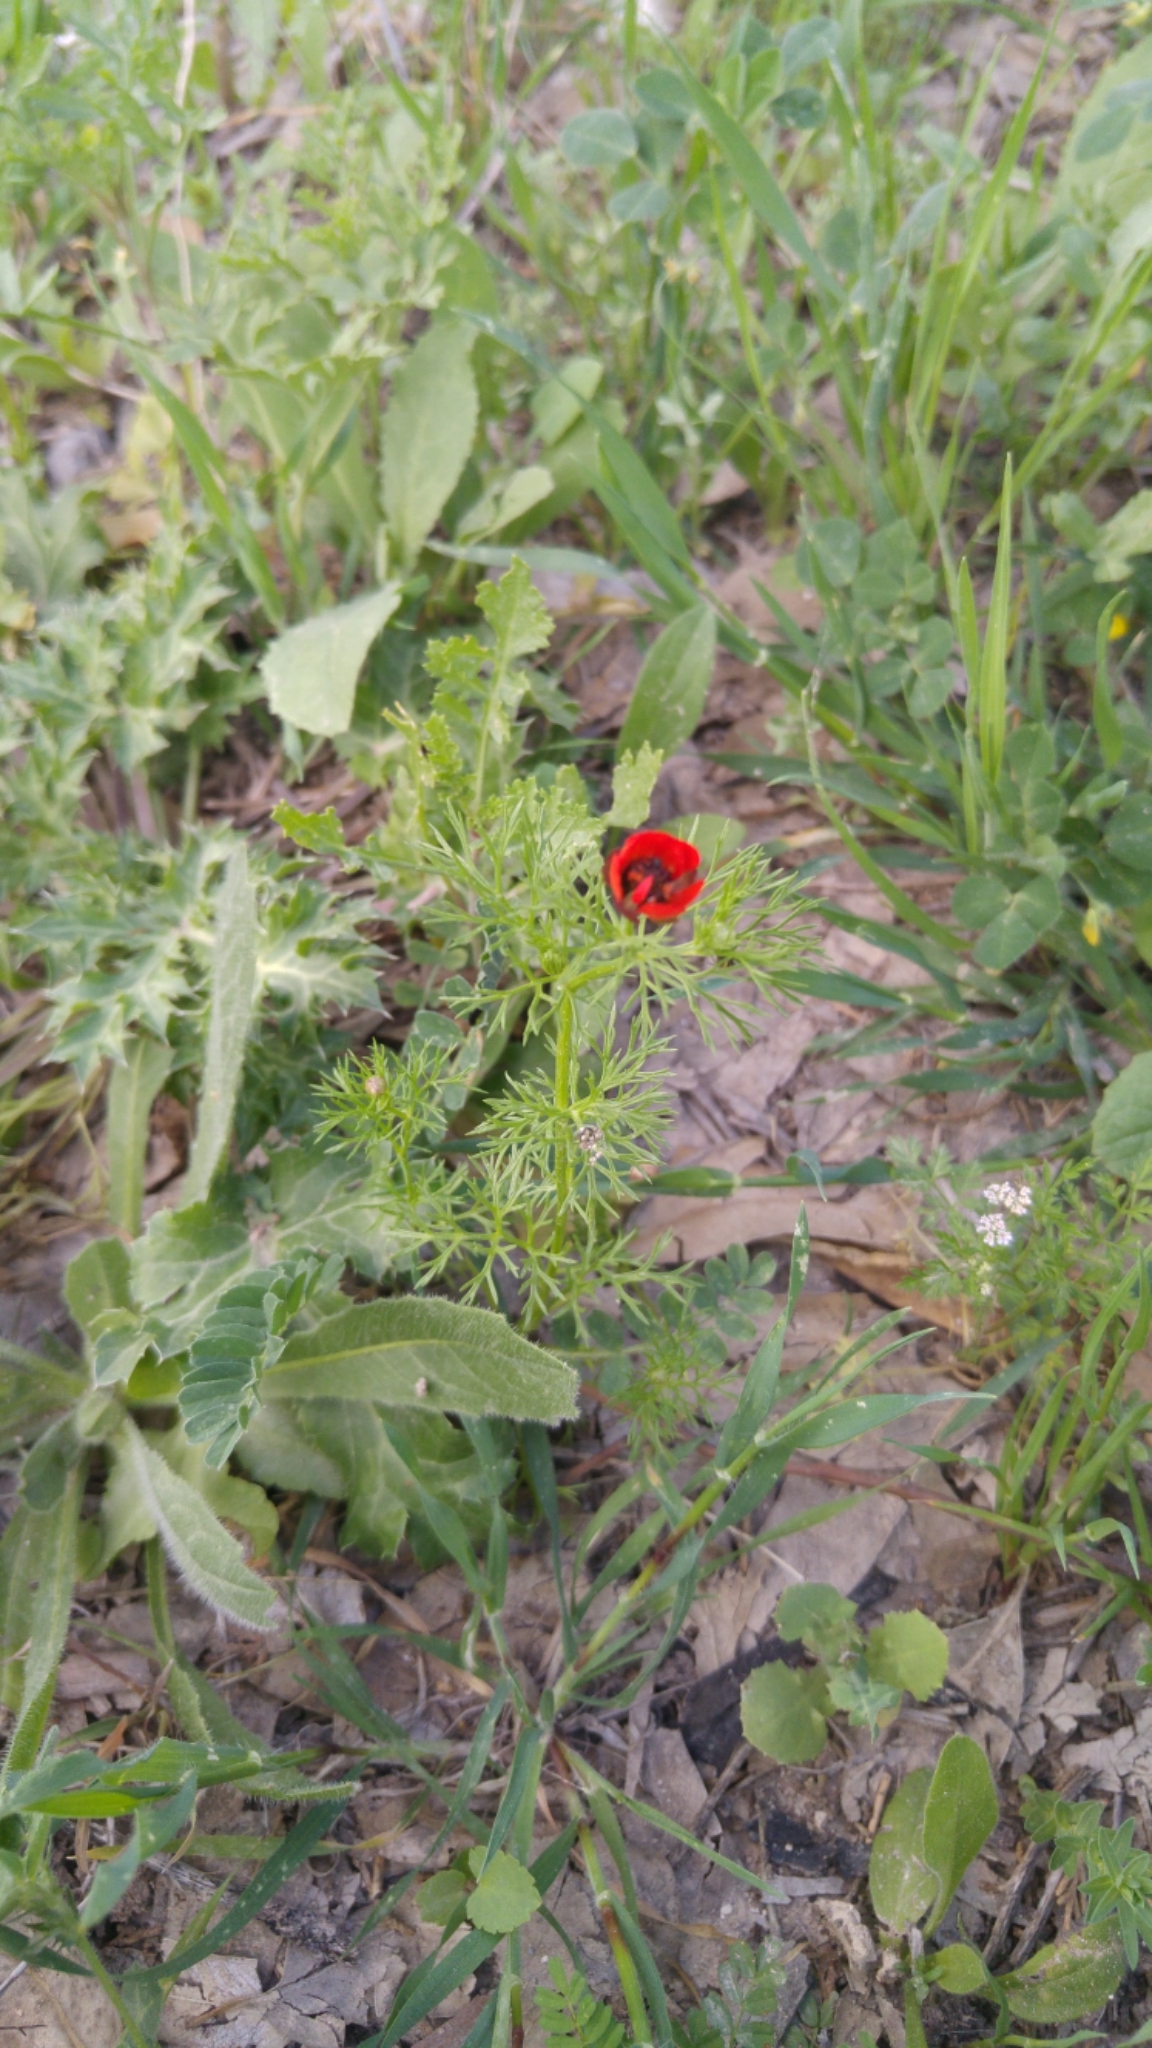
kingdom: Plantae
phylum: Tracheophyta
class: Magnoliopsida
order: Ranunculales
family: Ranunculaceae
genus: Adonis
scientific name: Adonis microcarpa
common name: Pheasant's-eye
